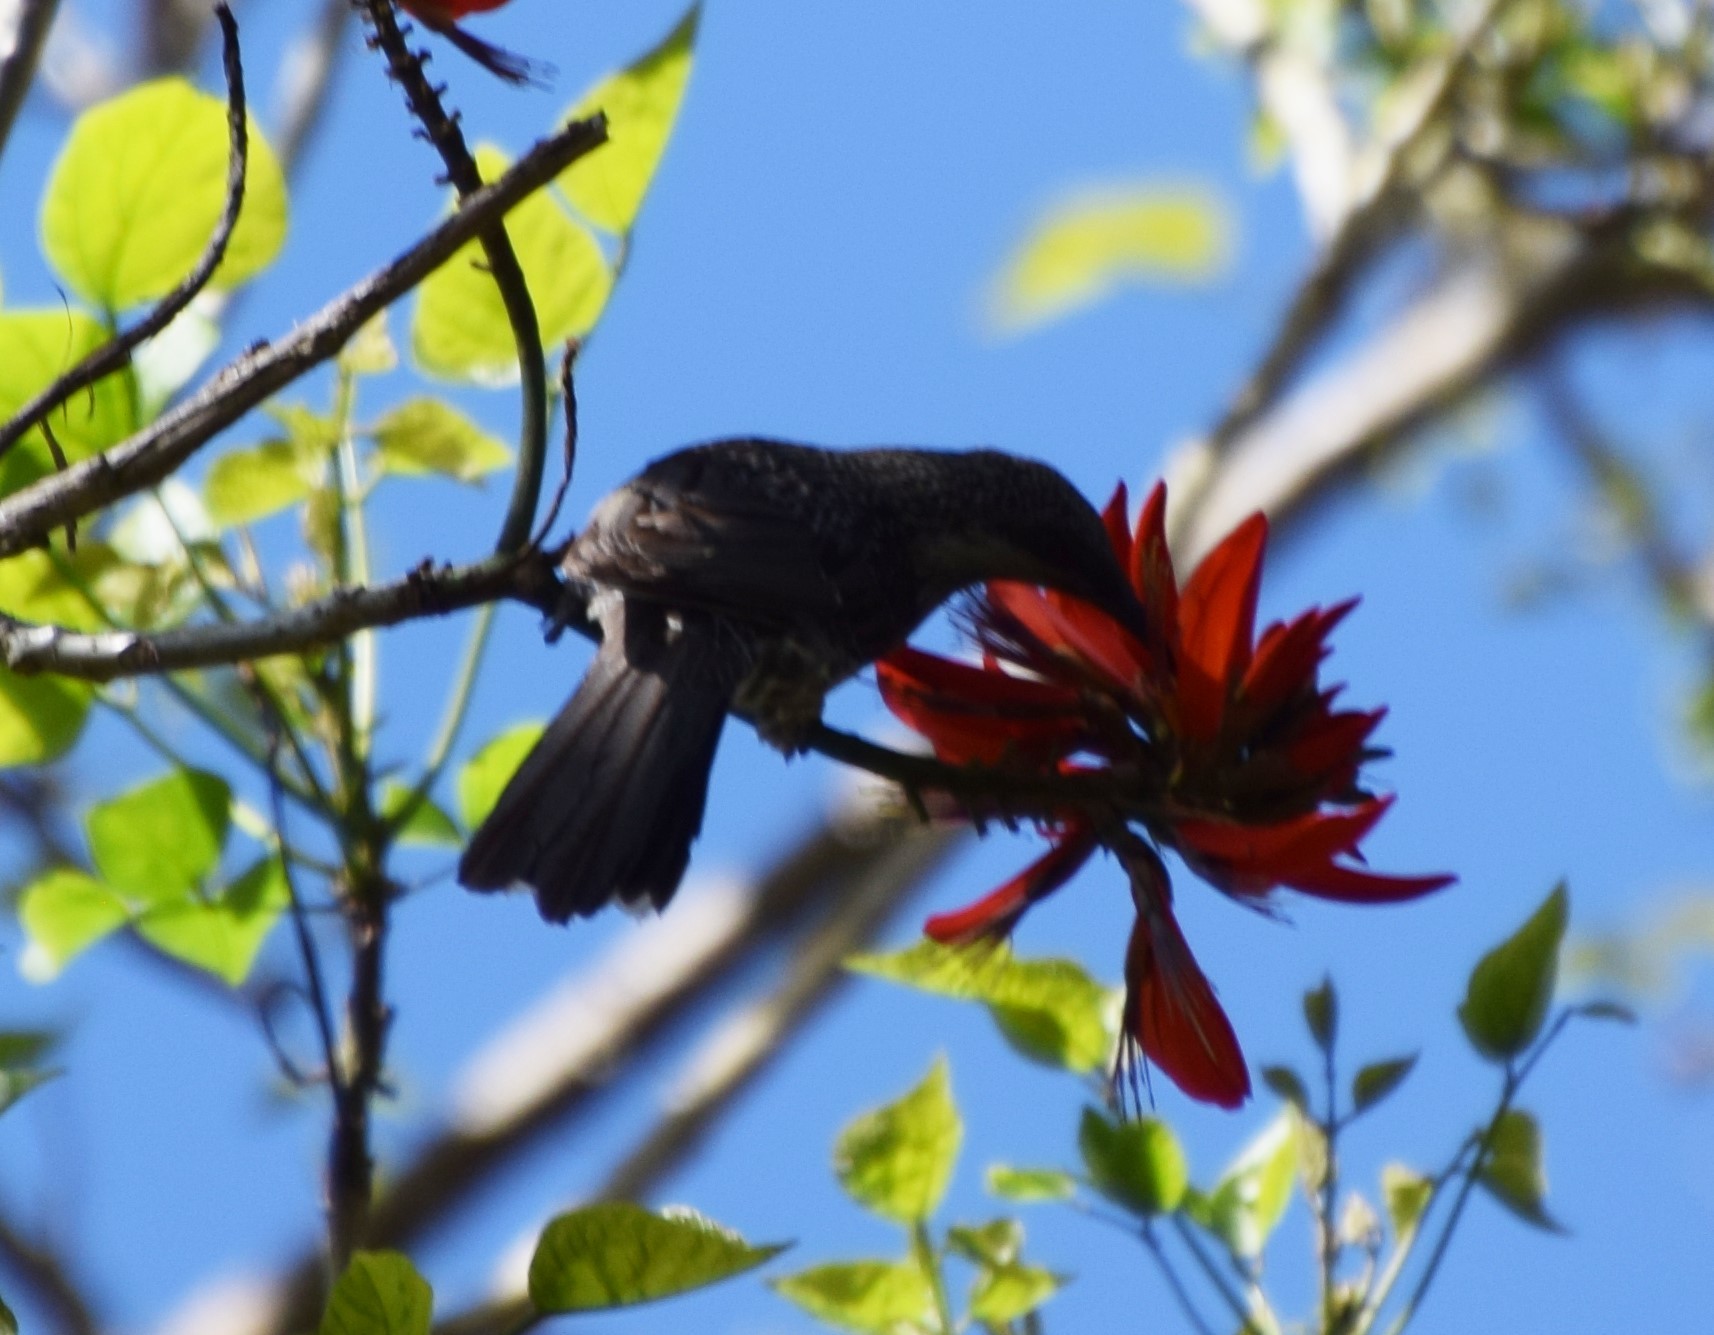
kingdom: Animalia
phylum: Chordata
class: Aves
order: Passeriformes
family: Meliphagidae
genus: Anthochaera
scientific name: Anthochaera chrysoptera
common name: Little wattlebird
